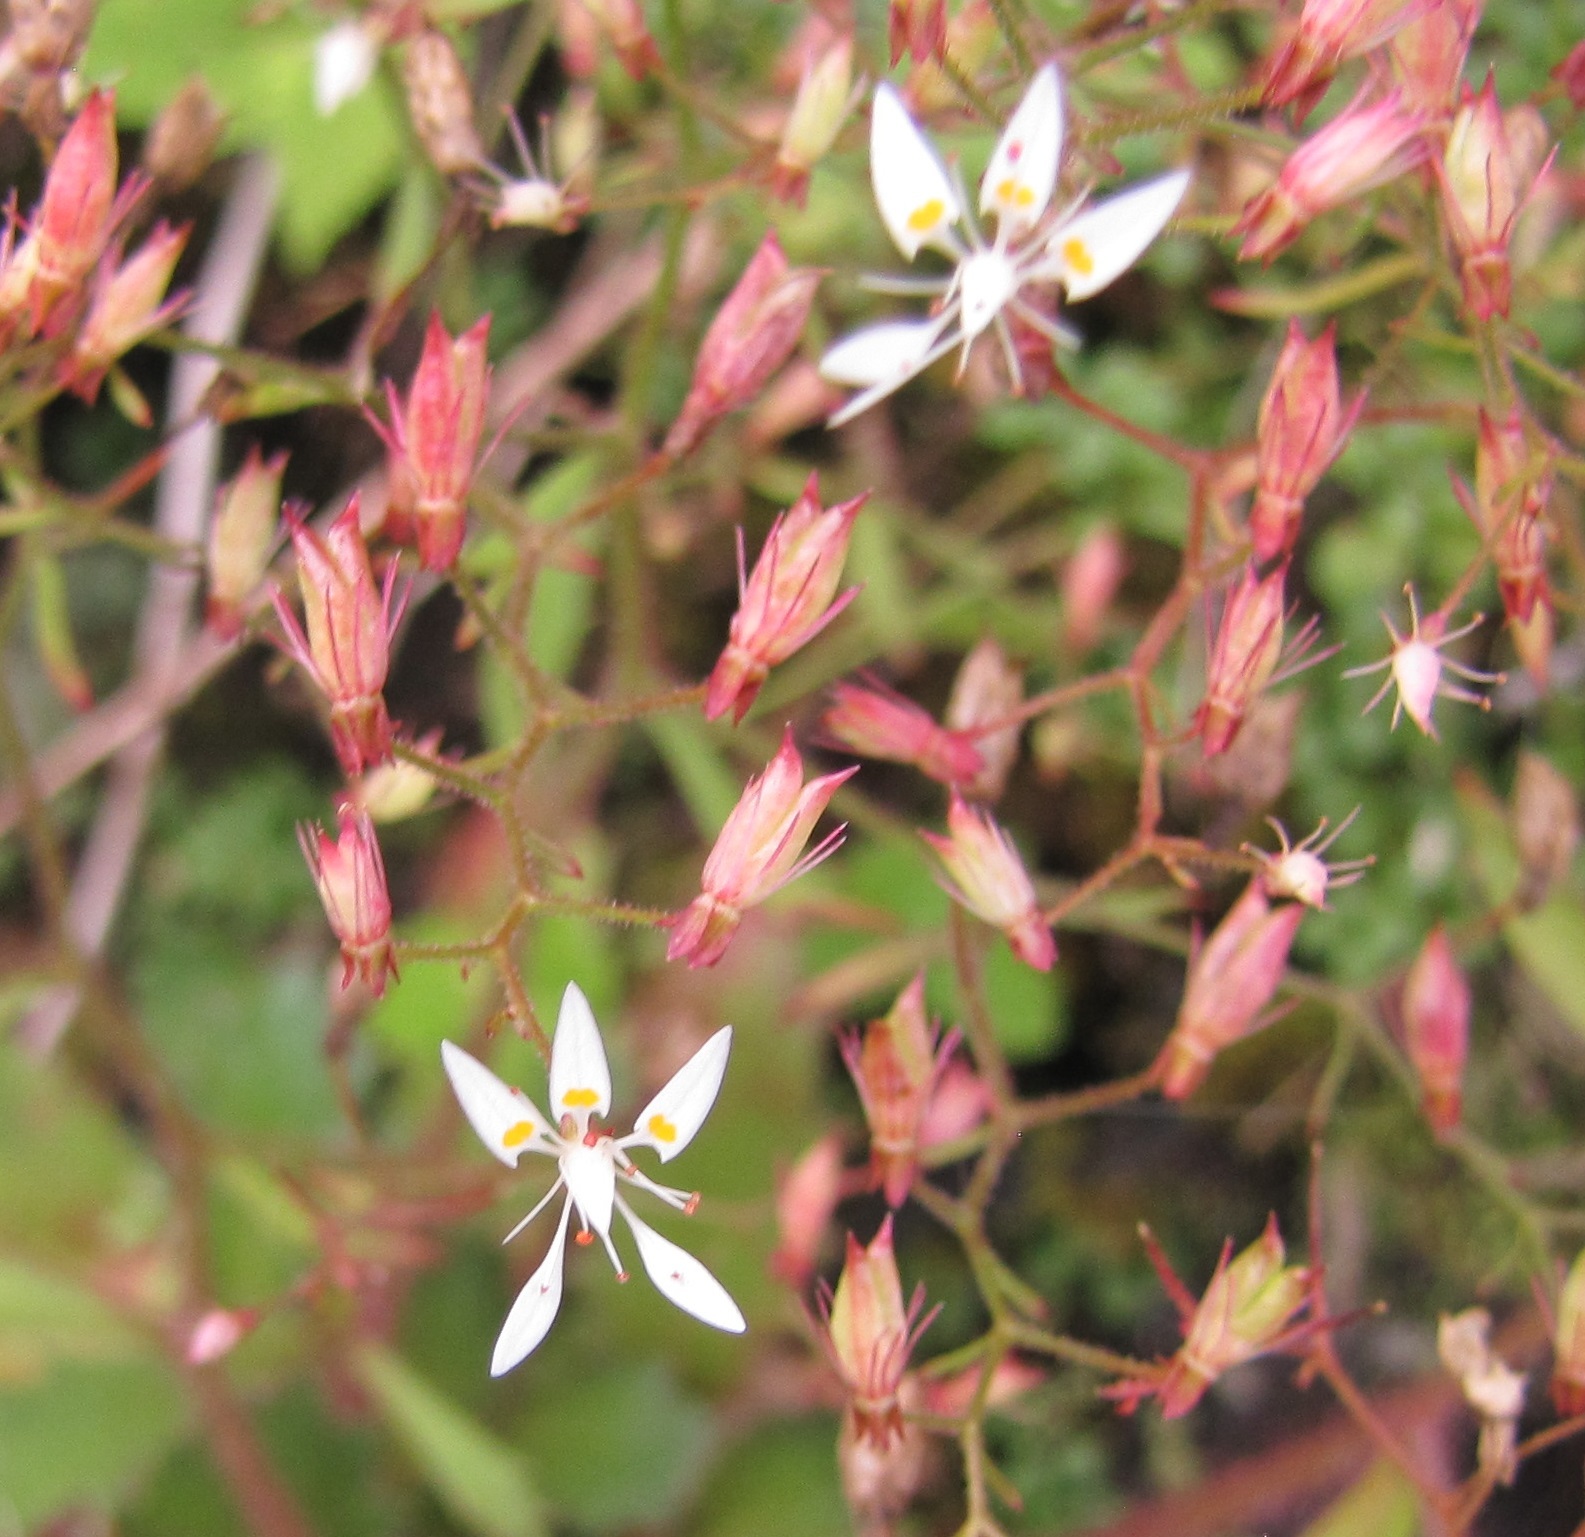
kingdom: Plantae
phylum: Tracheophyta
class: Magnoliopsida
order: Saxifragales
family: Saxifragaceae
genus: Micranthes
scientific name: Micranthes petiolaris
